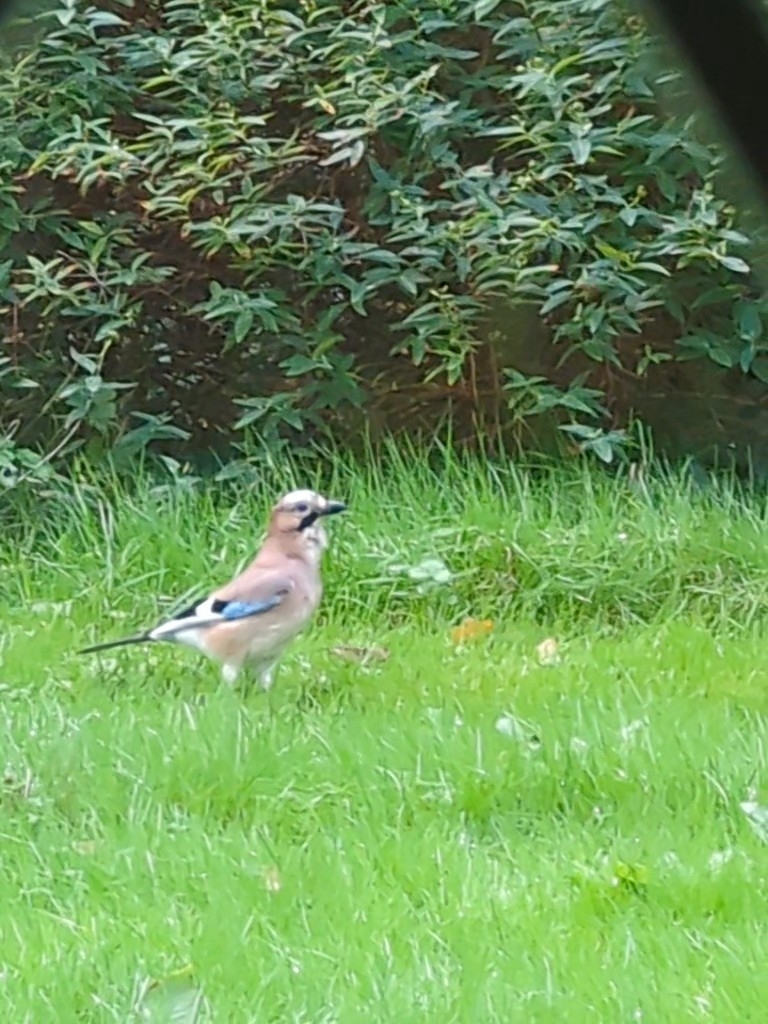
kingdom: Animalia
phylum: Chordata
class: Aves
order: Passeriformes
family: Corvidae
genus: Garrulus
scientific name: Garrulus glandarius
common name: Eurasian jay
